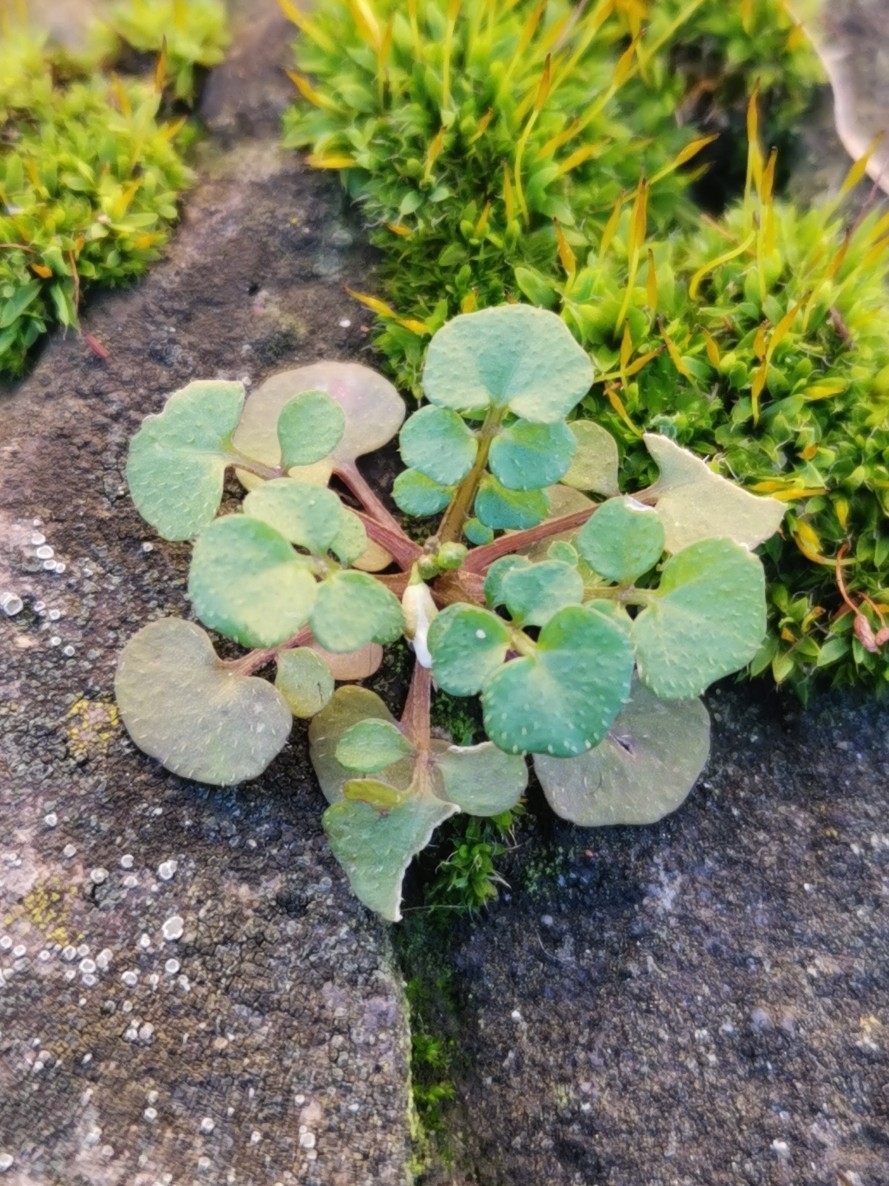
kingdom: Plantae
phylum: Tracheophyta
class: Magnoliopsida
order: Brassicales
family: Brassicaceae
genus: Cardamine
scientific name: Cardamine hirsuta
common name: Hairy bittercress
